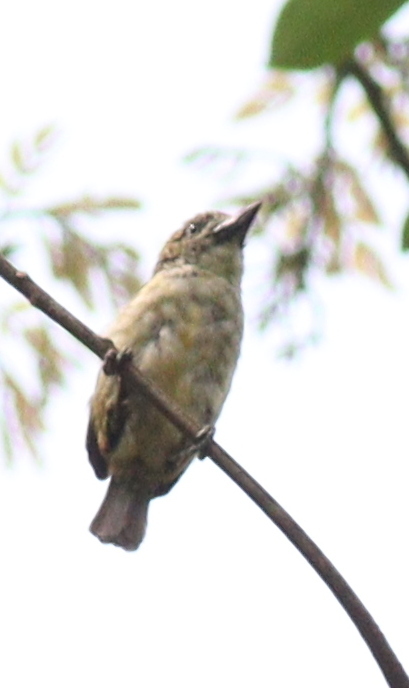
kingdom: Animalia
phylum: Chordata
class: Aves
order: Piciformes
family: Lybiidae
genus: Pogoniulus
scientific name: Pogoniulus scolopaceus
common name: Speckled tinkerbird
